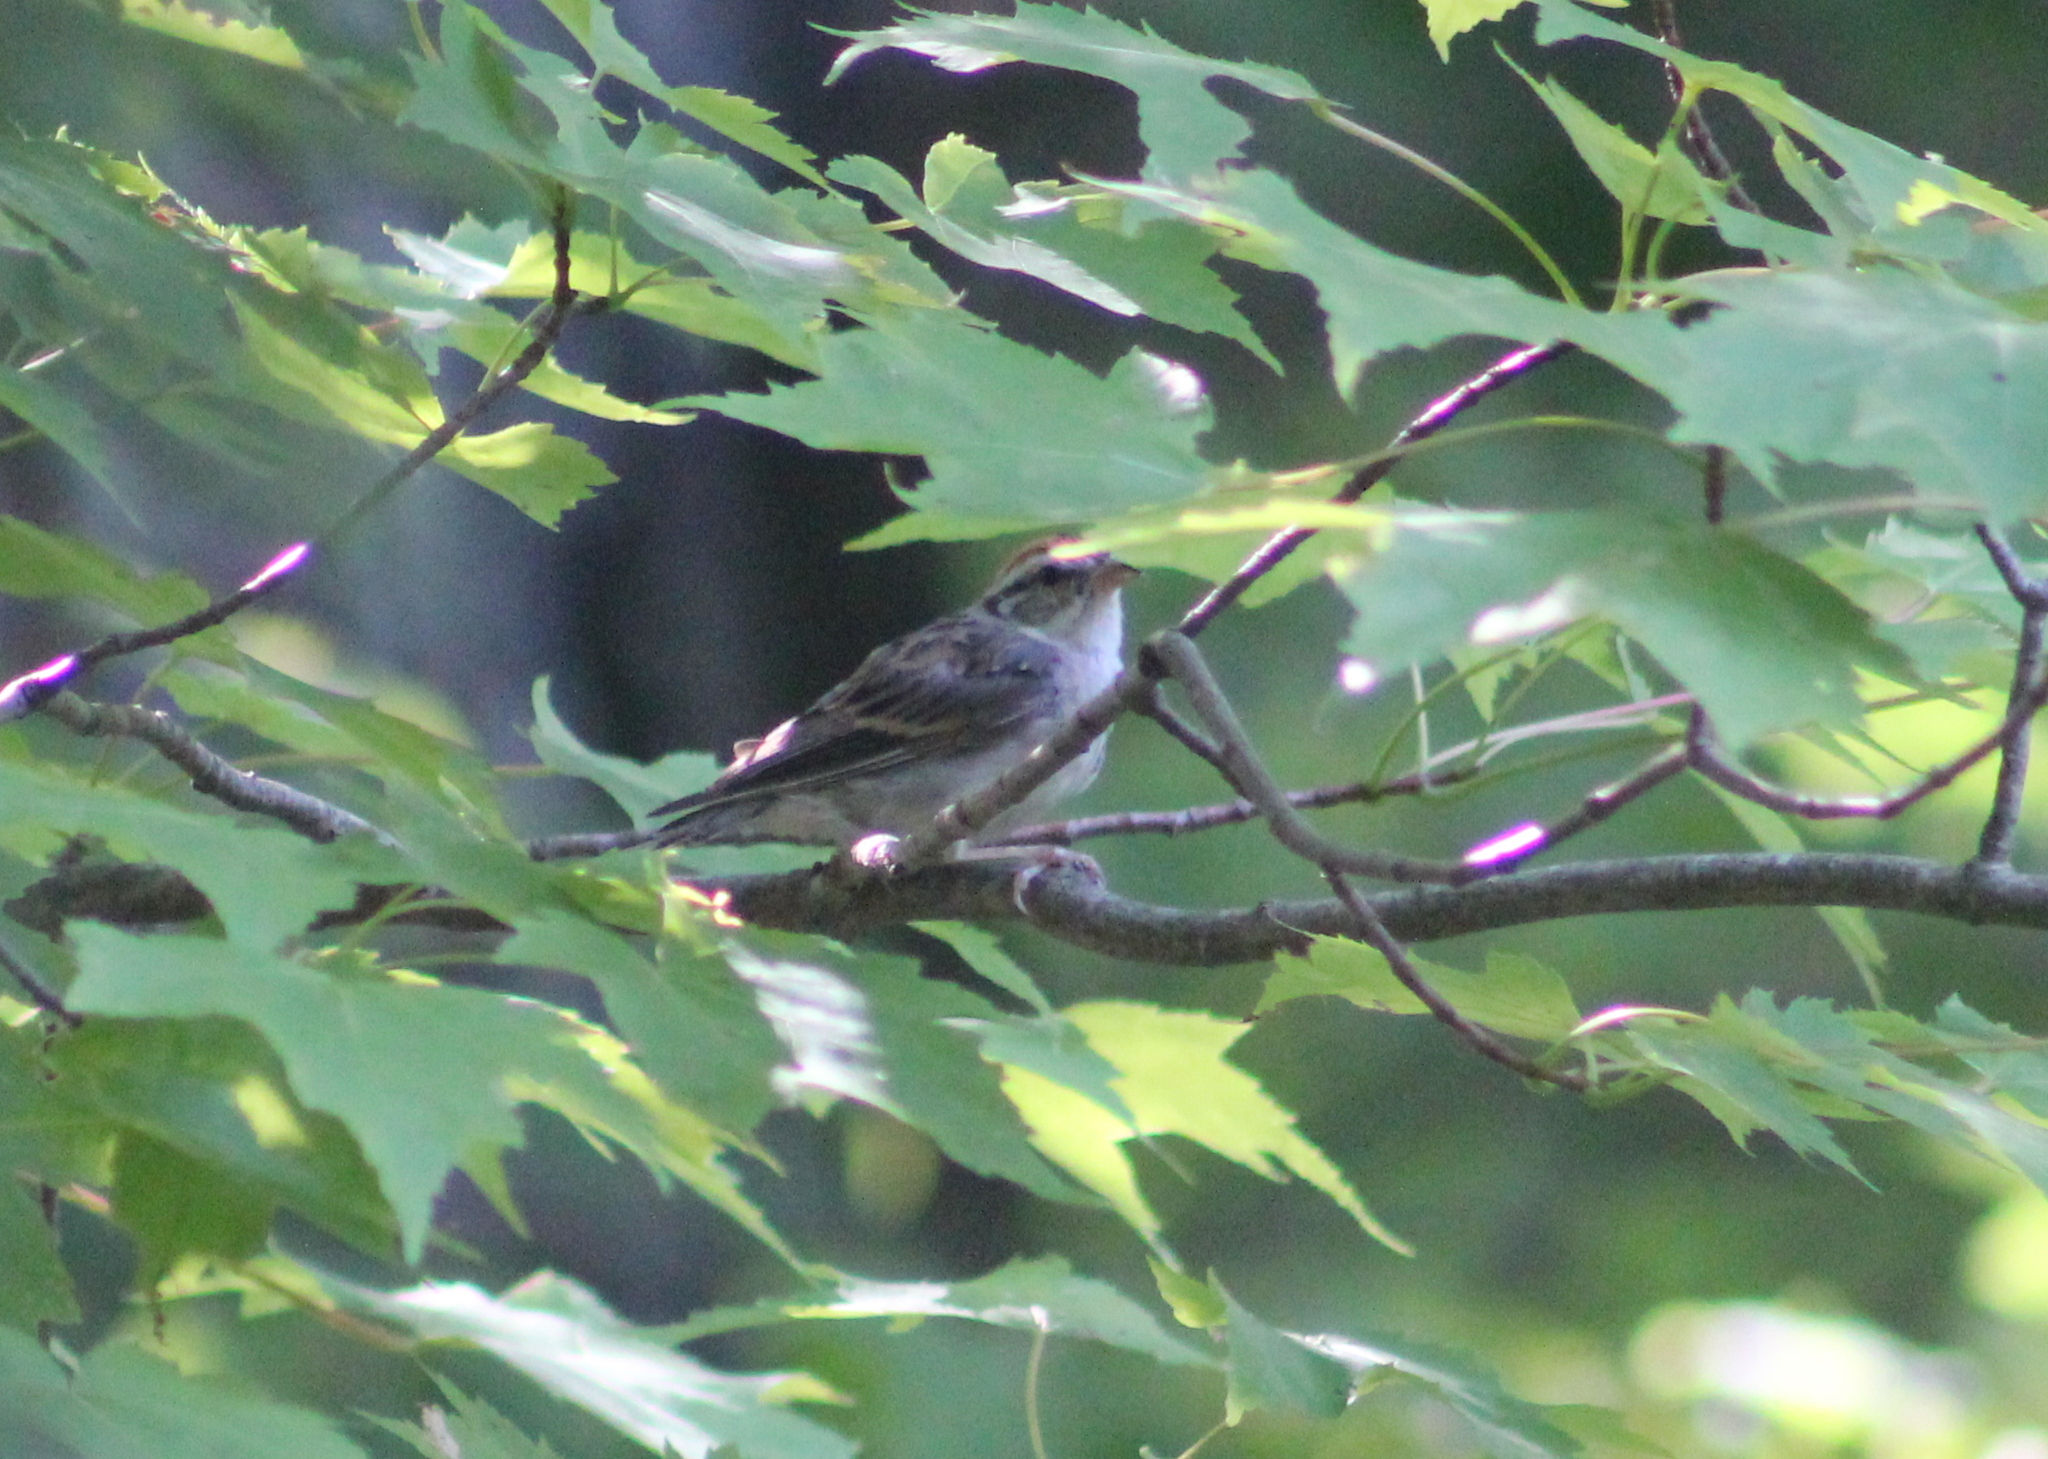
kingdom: Animalia
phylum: Chordata
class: Aves
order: Passeriformes
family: Passerellidae
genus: Spizella
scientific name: Spizella passerina
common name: Chipping sparrow
